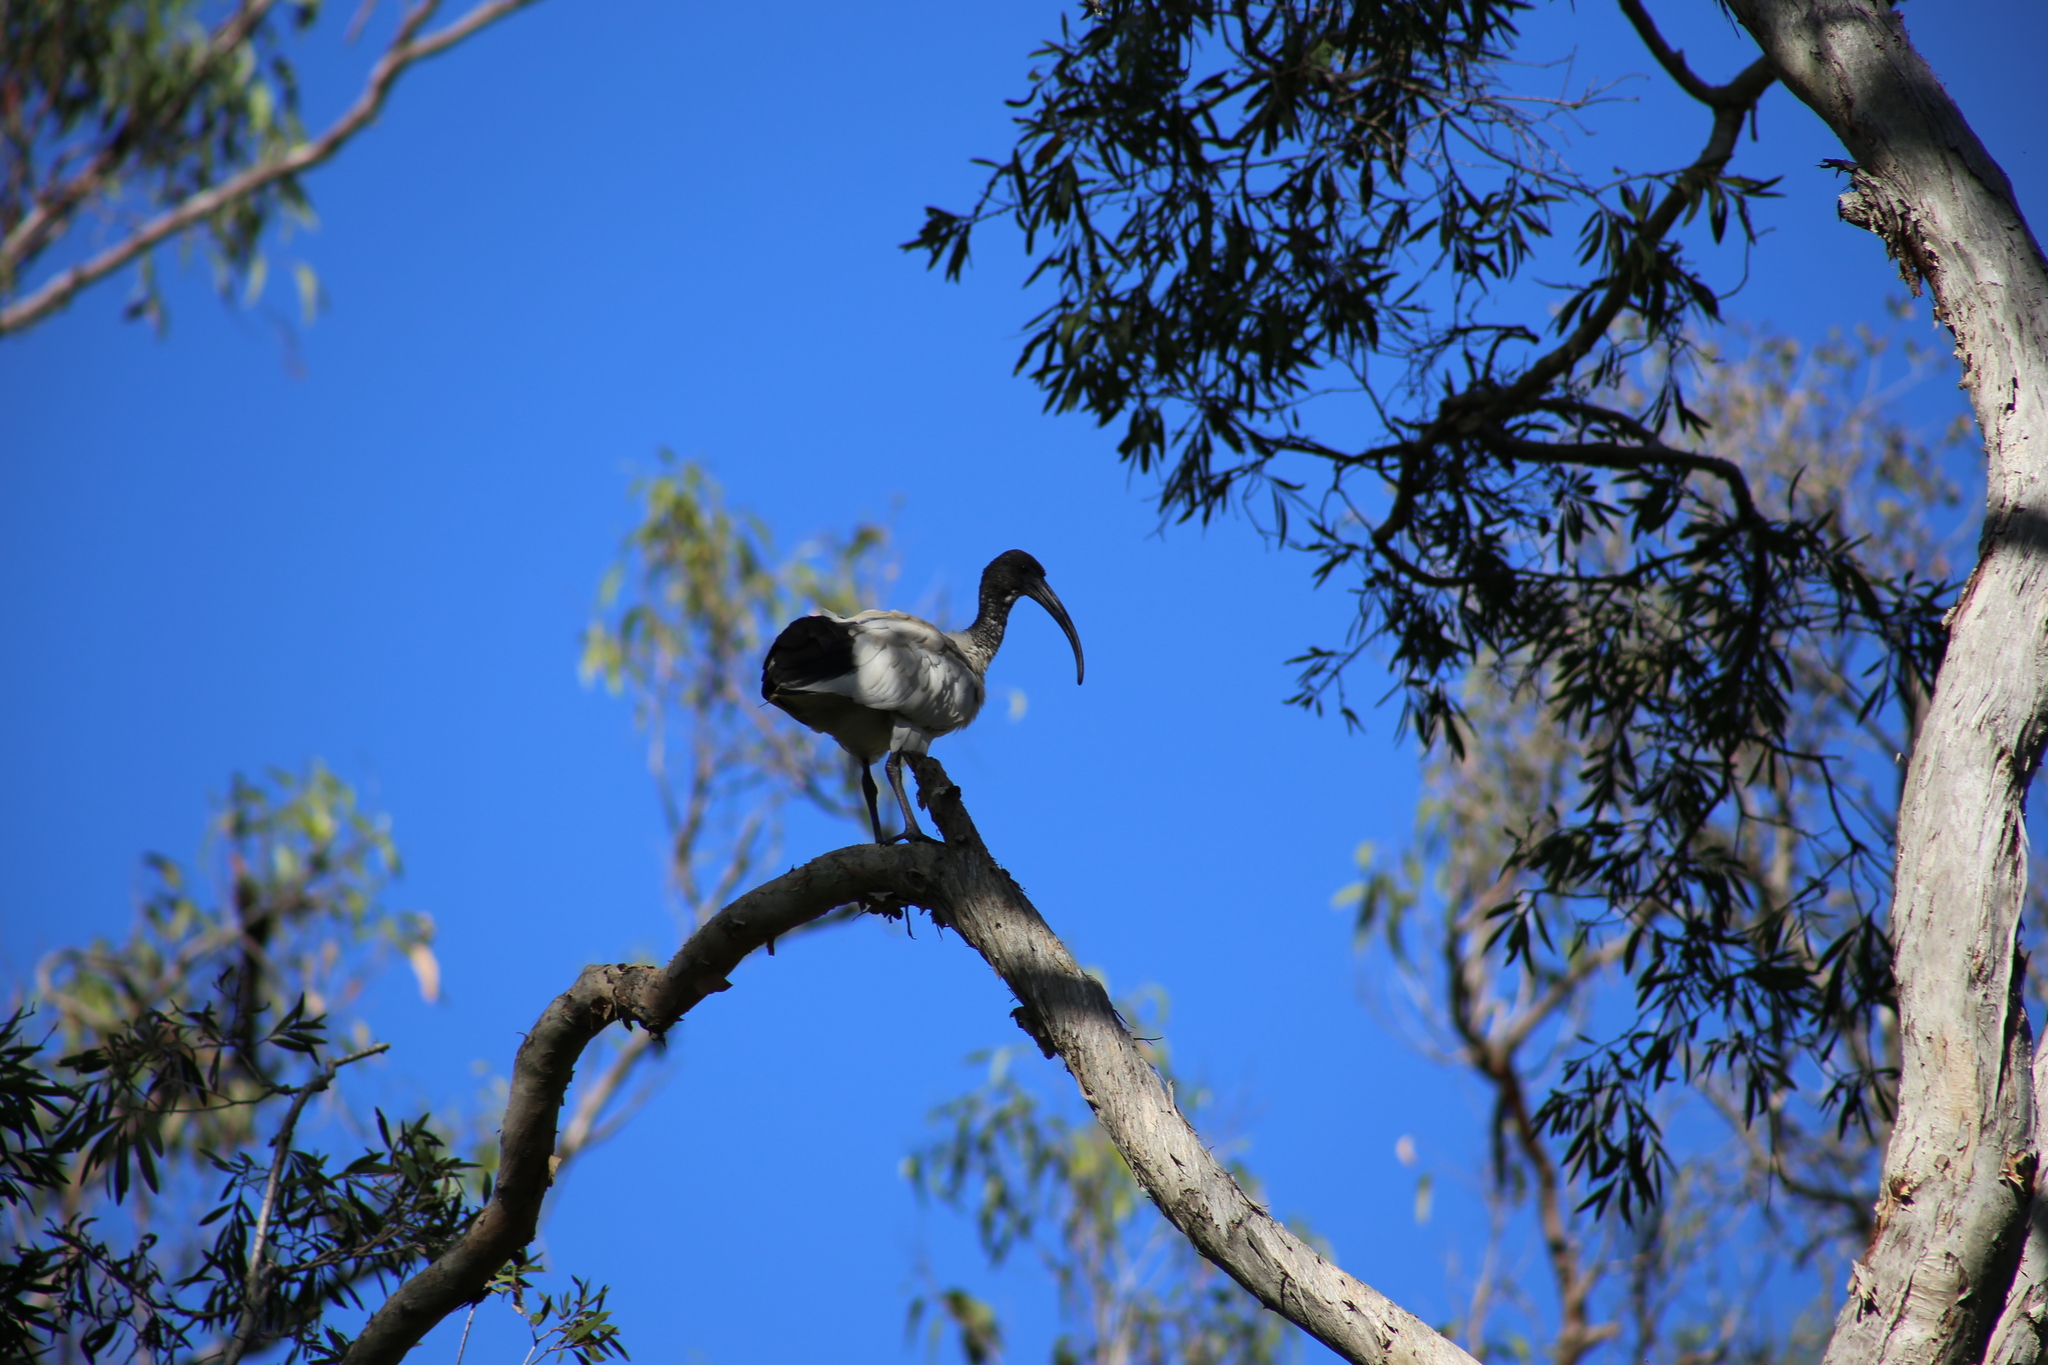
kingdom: Animalia
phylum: Chordata
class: Aves
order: Pelecaniformes
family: Threskiornithidae
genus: Threskiornis
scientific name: Threskiornis molucca
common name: Australian white ibis
